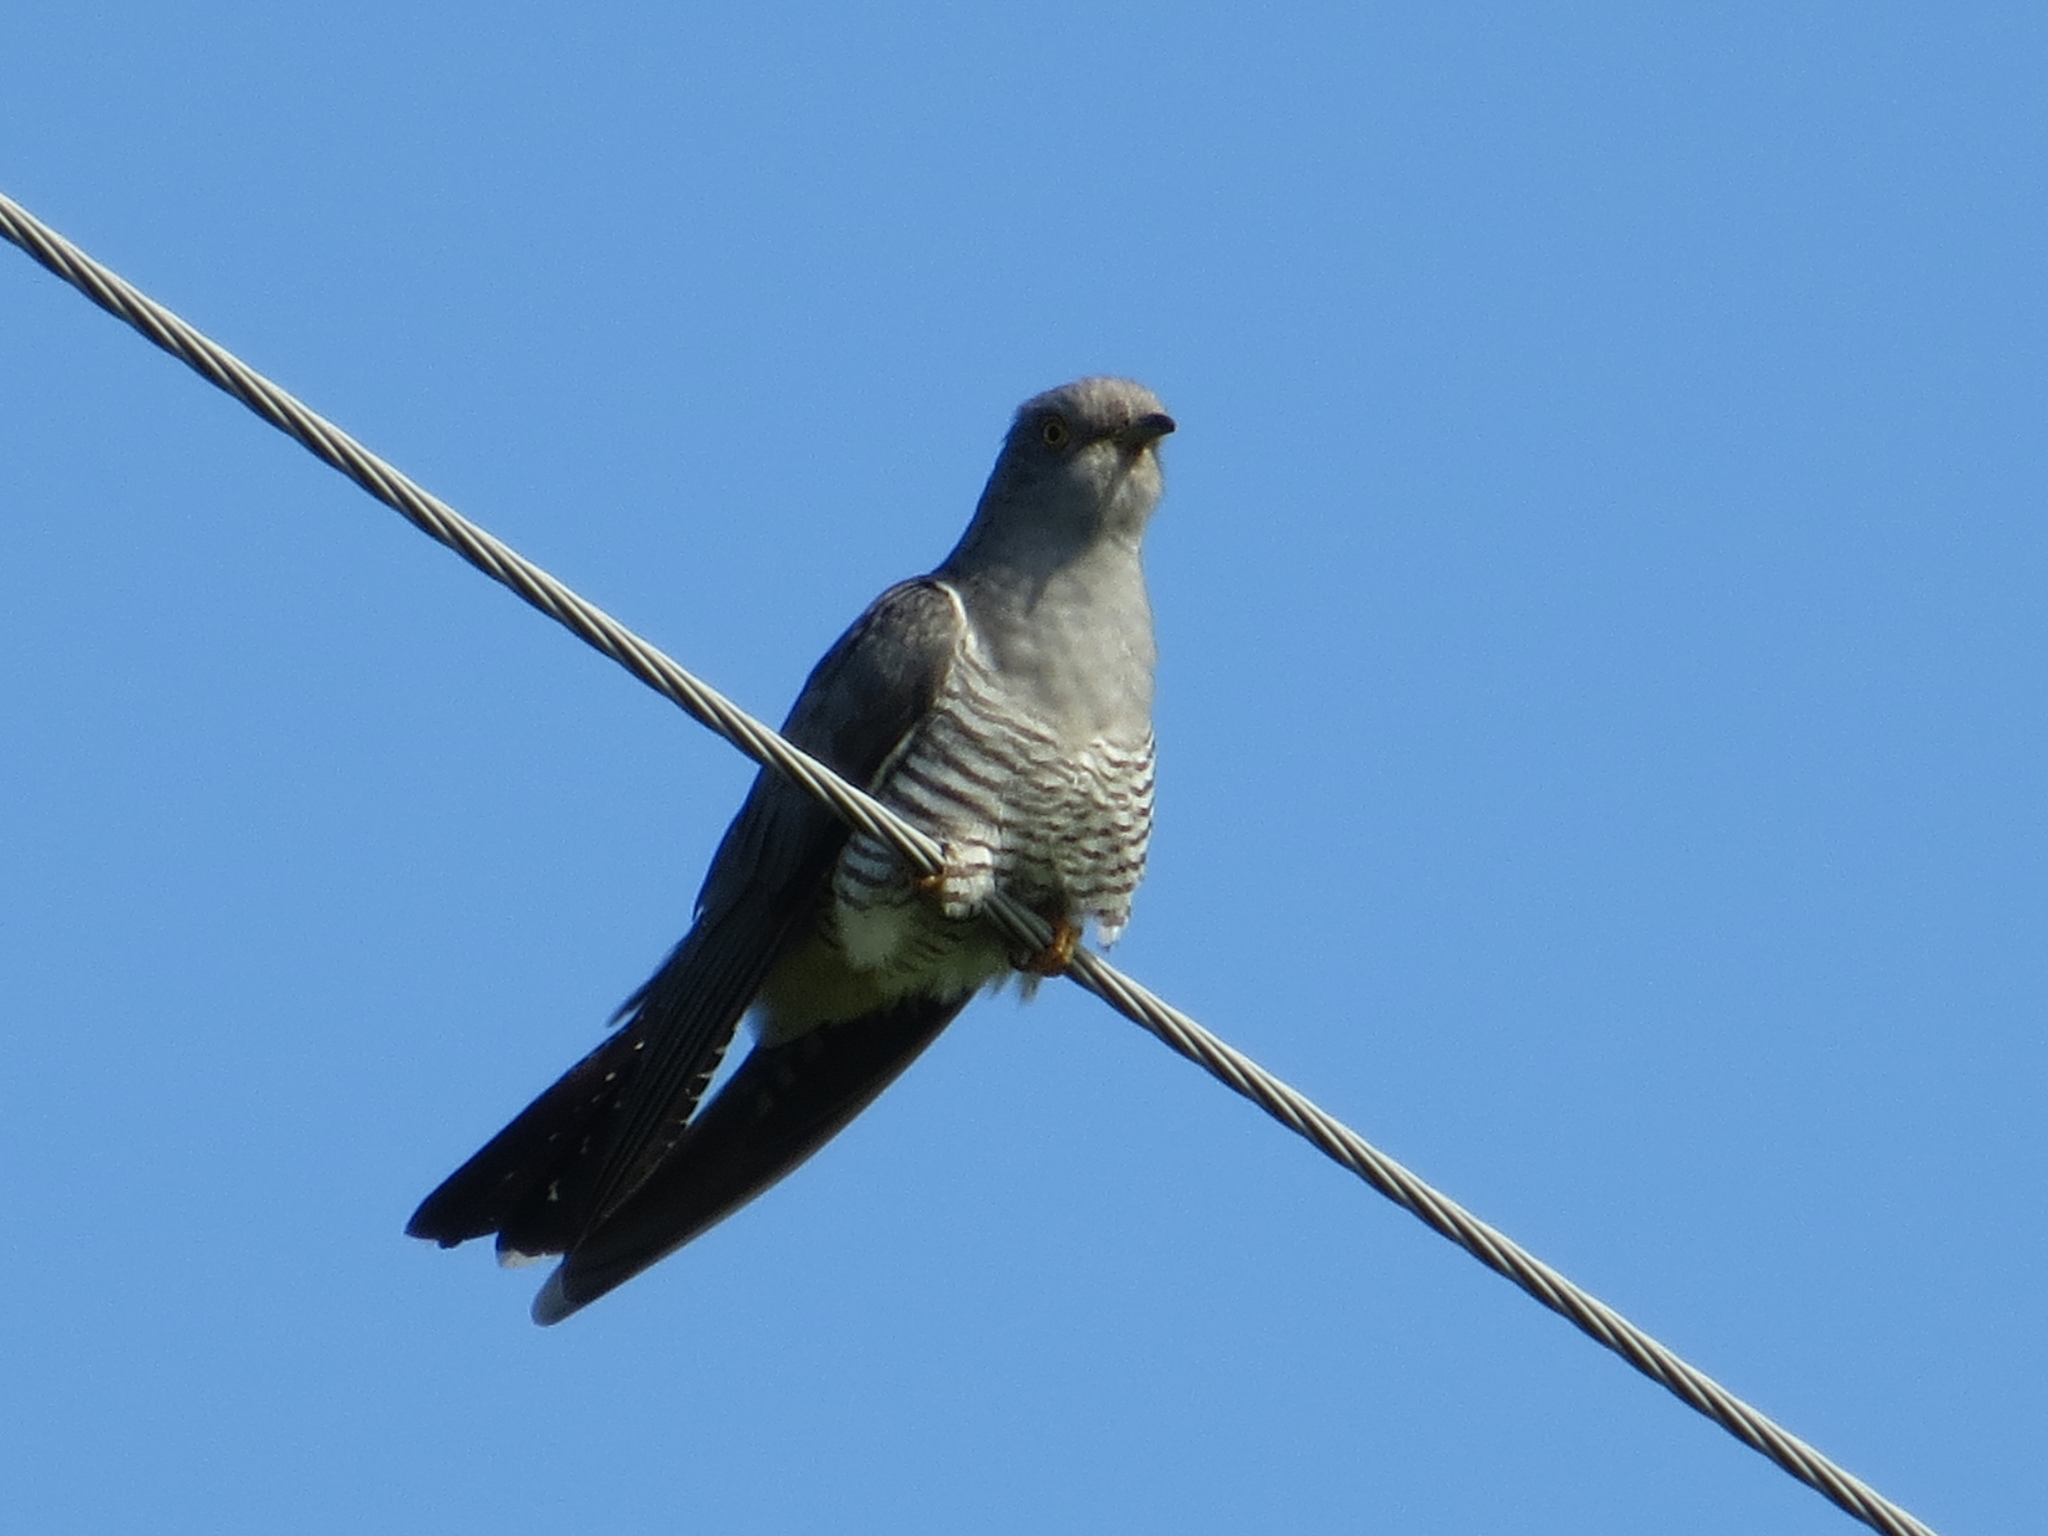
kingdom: Animalia
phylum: Chordata
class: Aves
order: Cuculiformes
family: Cuculidae
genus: Cuculus
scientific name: Cuculus canorus
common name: Common cuckoo
